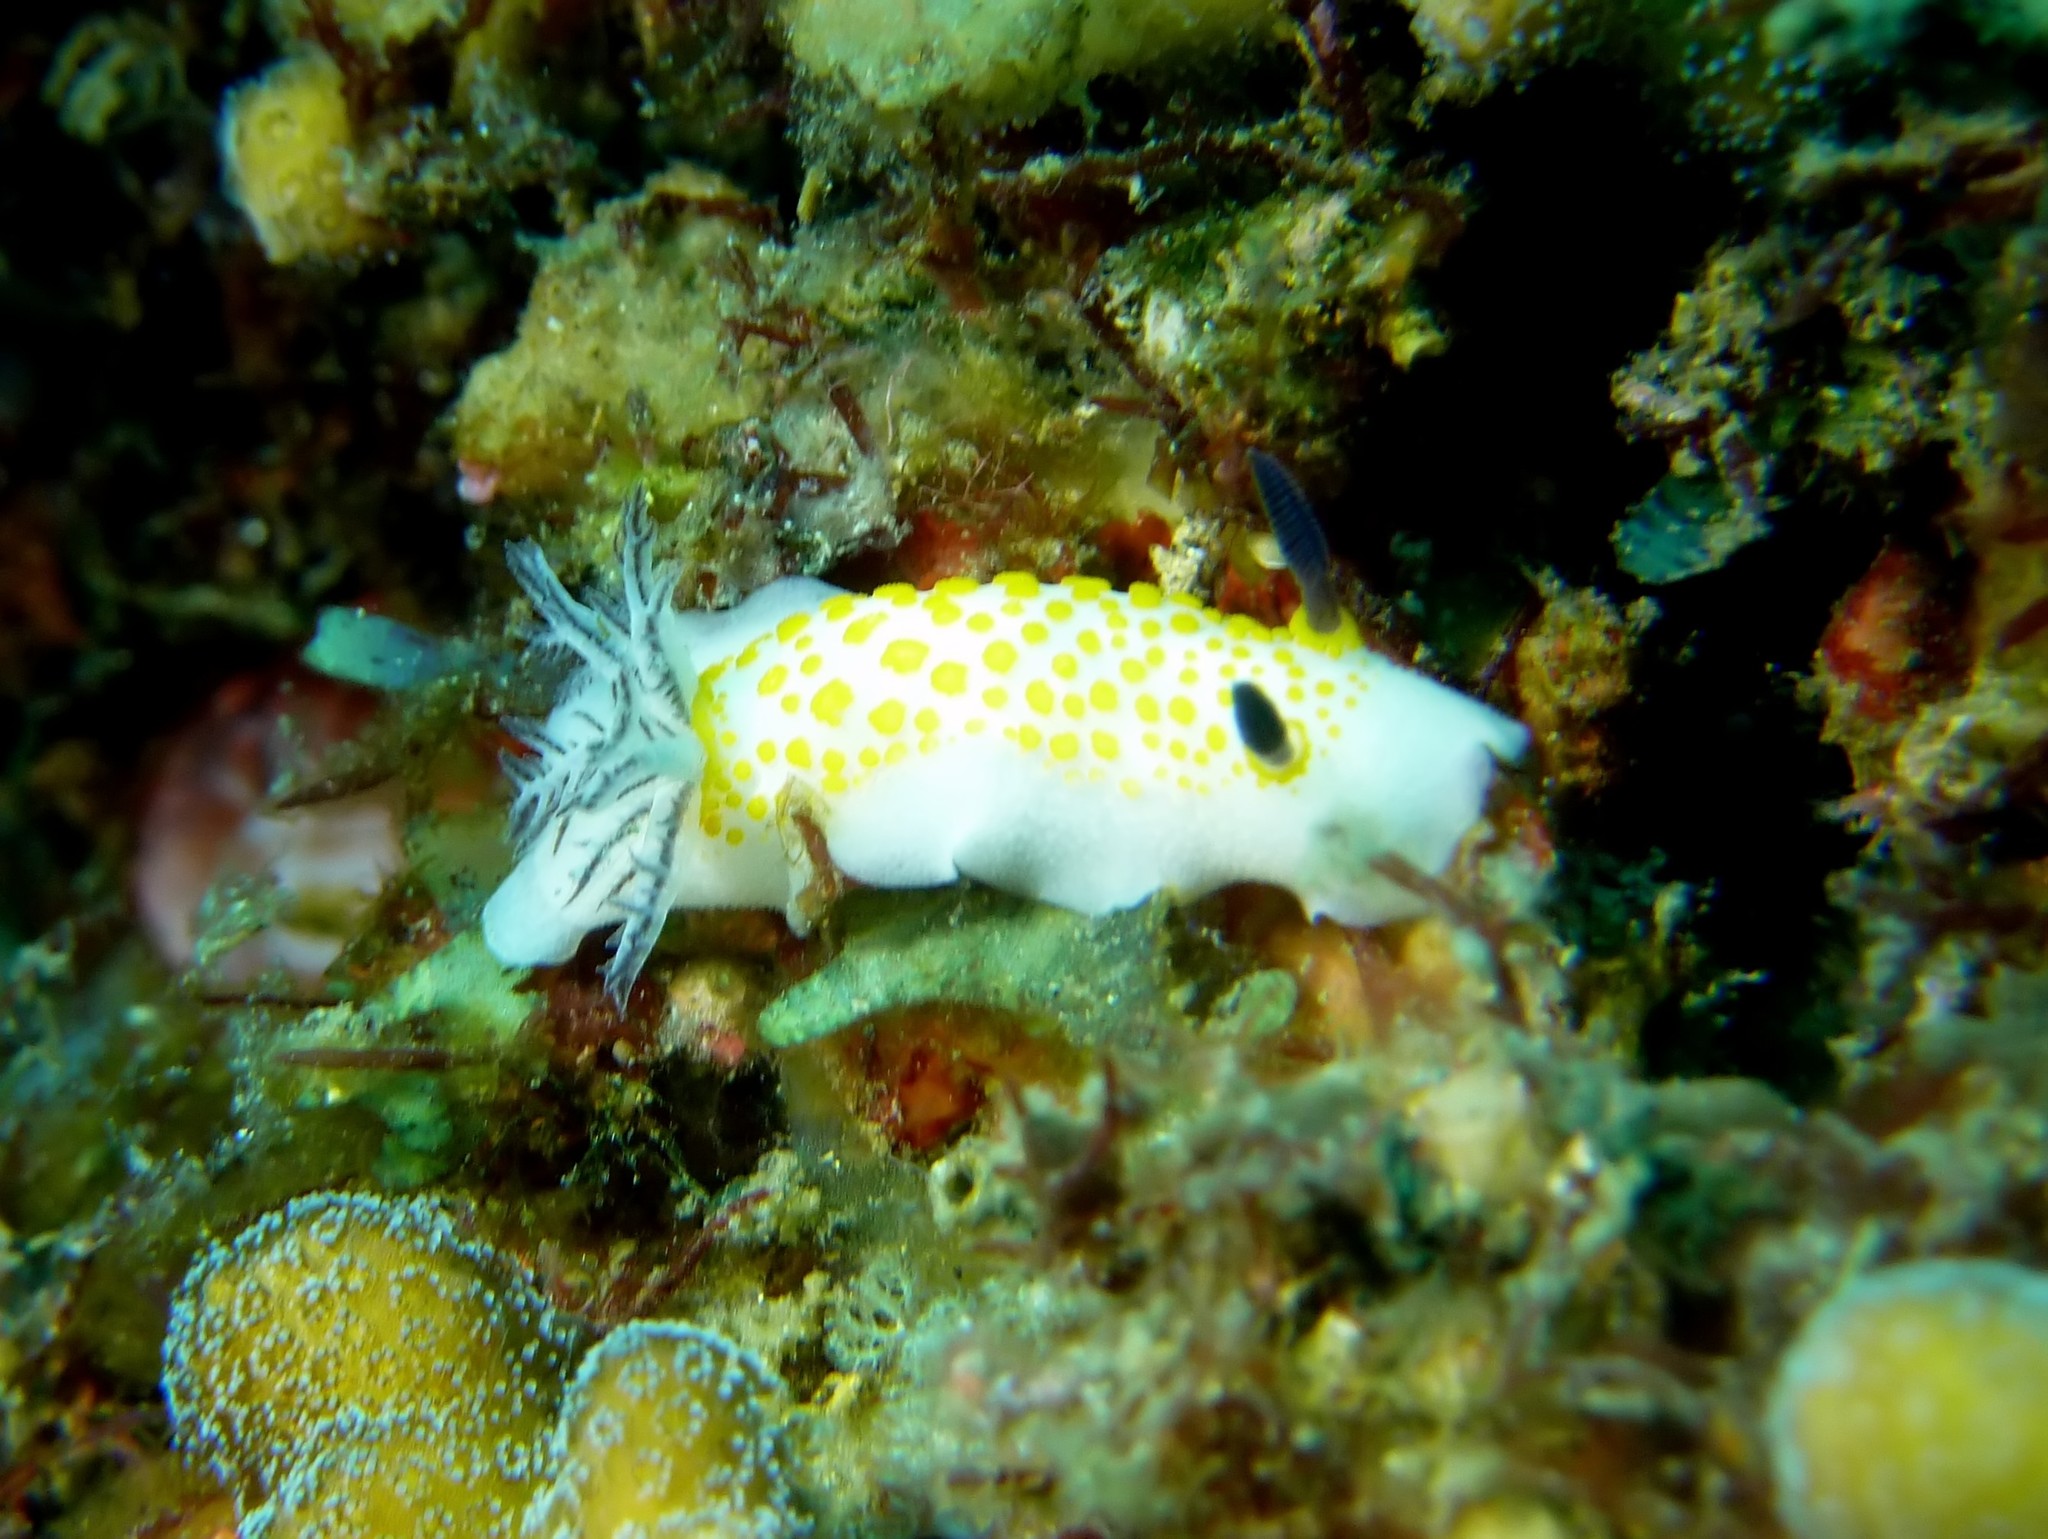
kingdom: Animalia
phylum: Mollusca
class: Gastropoda
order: Nudibranchia
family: Discodorididae
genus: Taringa
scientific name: Taringa halgerda
